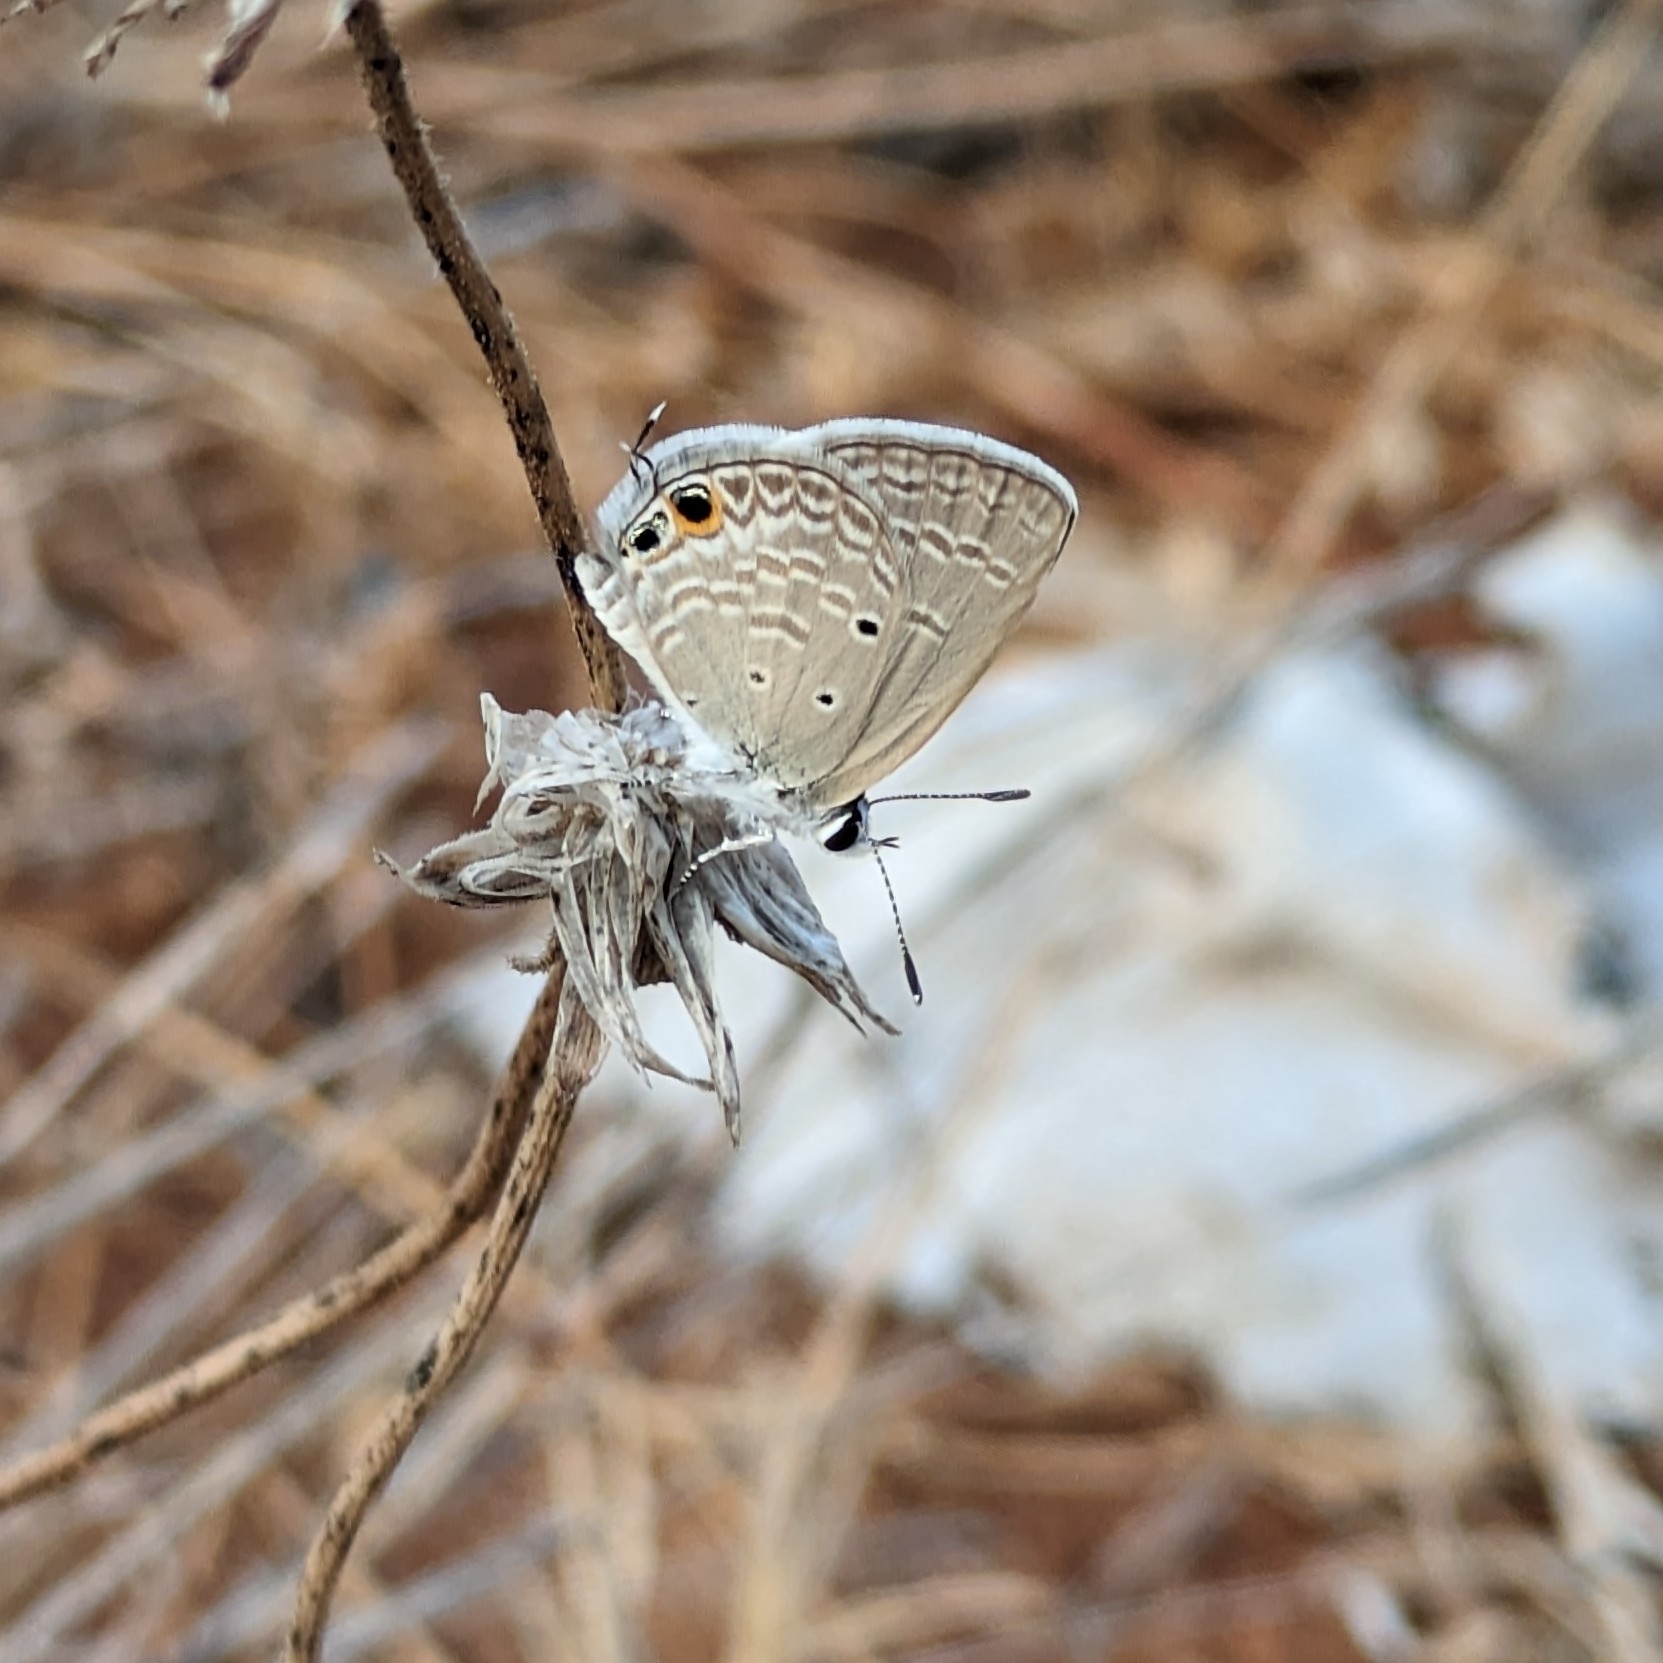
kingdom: Animalia
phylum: Arthropoda
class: Insecta
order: Lepidoptera
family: Lycaenidae
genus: Chilades
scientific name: Chilades parrhasius
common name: Small cupid
